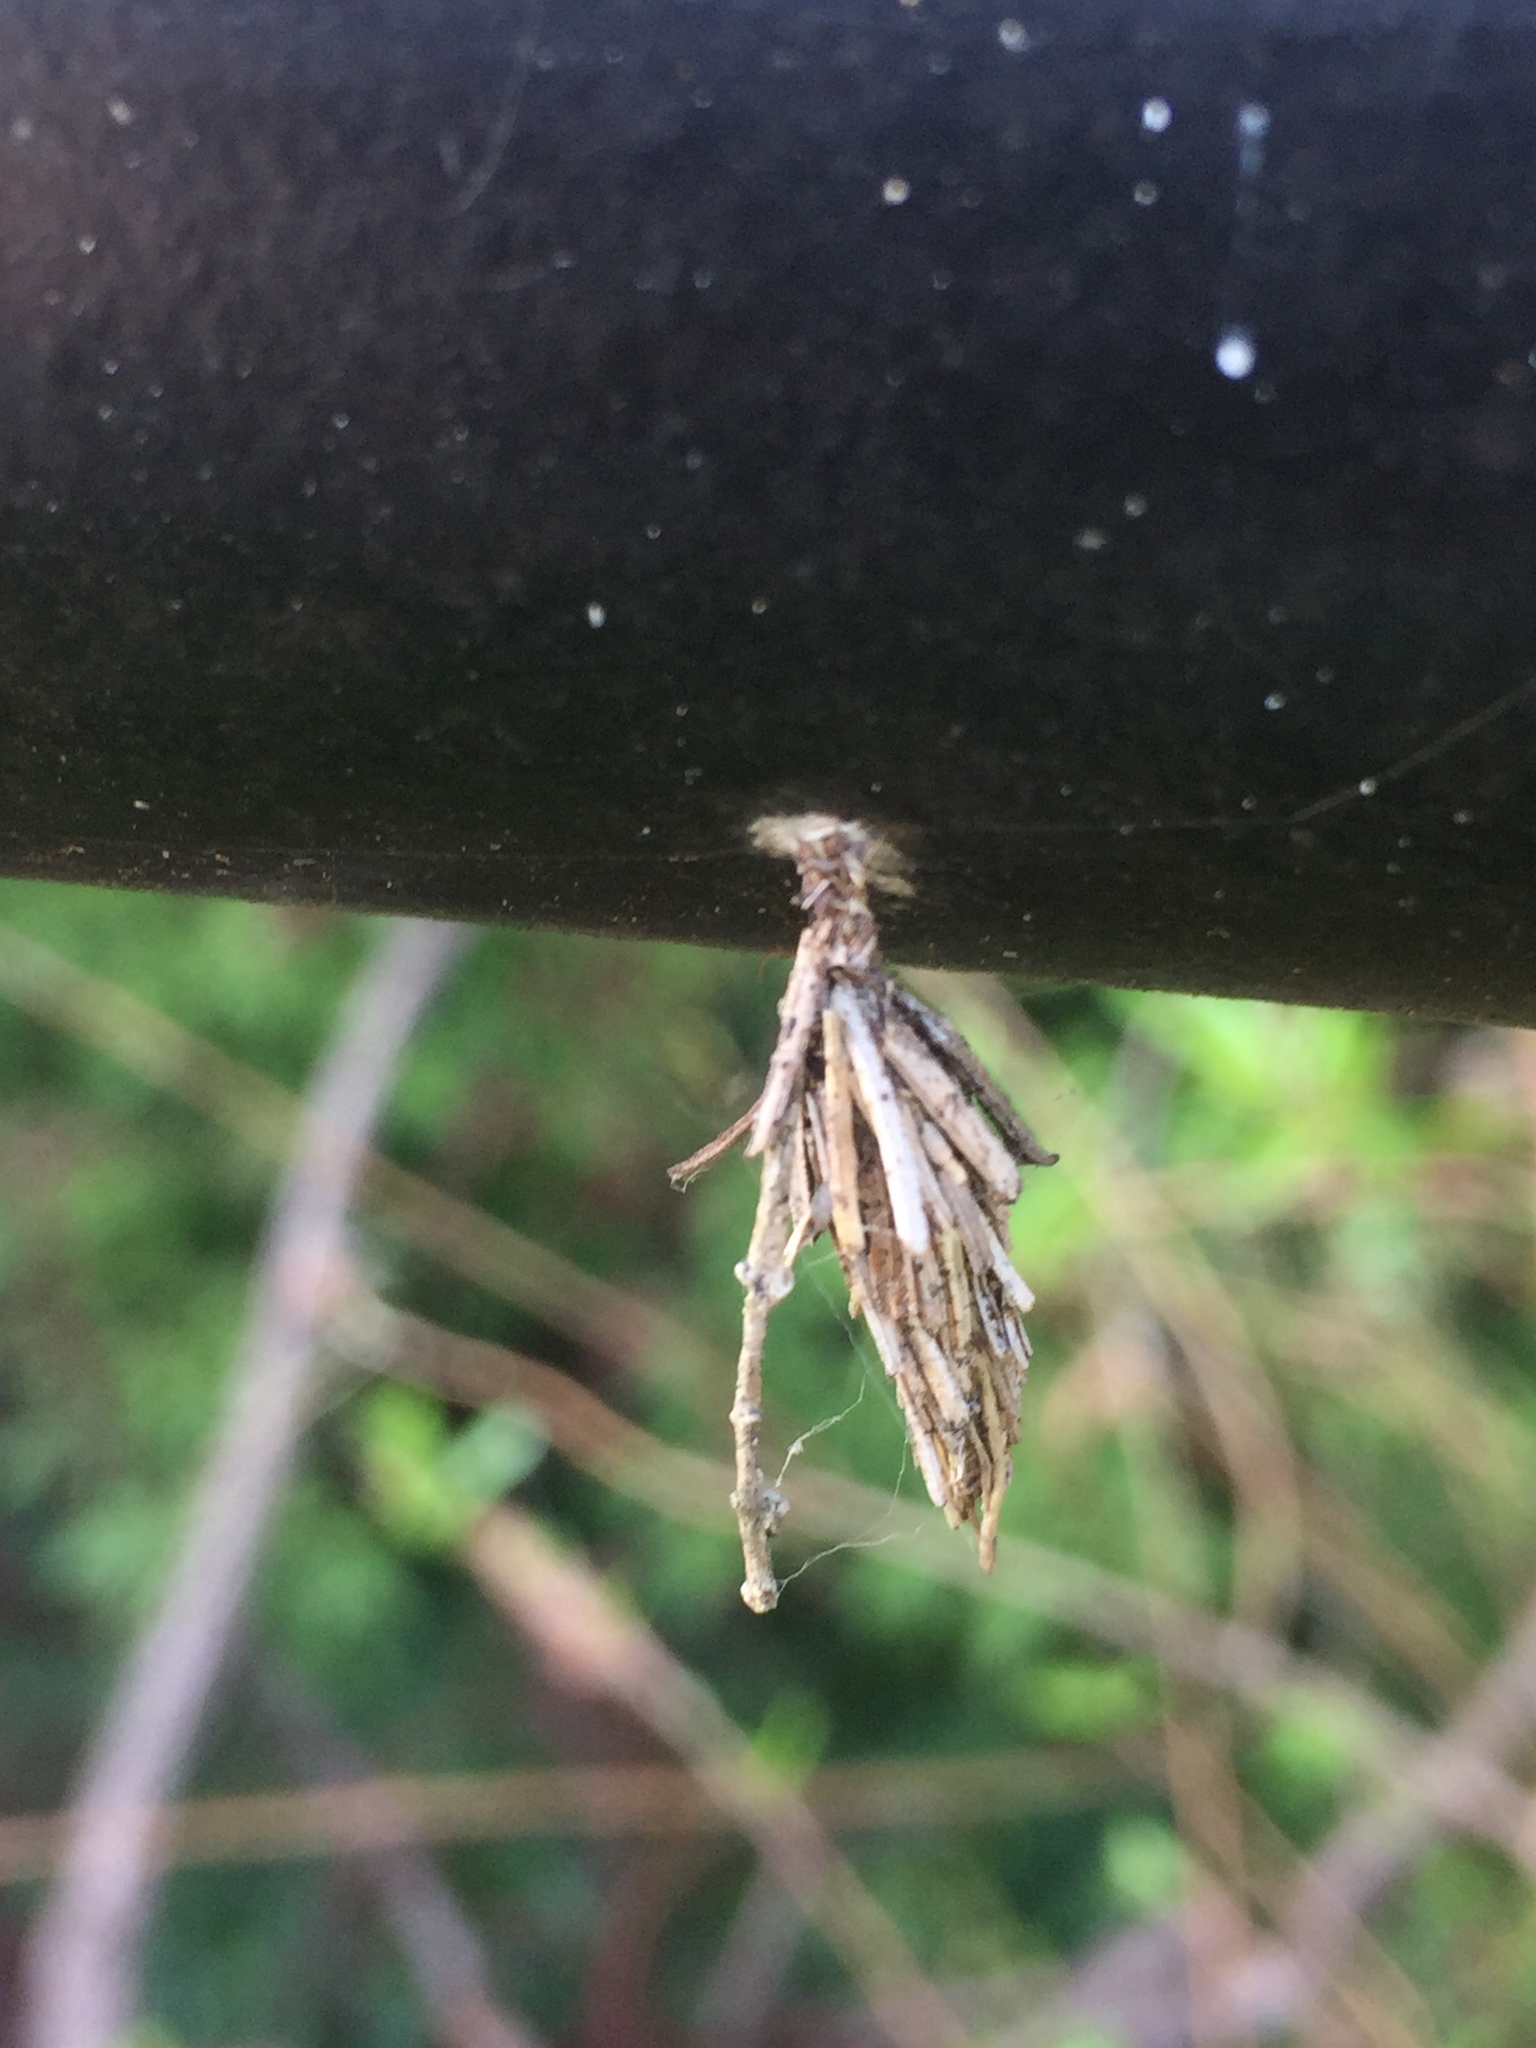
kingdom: Animalia
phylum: Arthropoda
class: Insecta
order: Lepidoptera
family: Psychidae
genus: Thyridopteryx
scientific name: Thyridopteryx ephemeraeformis
